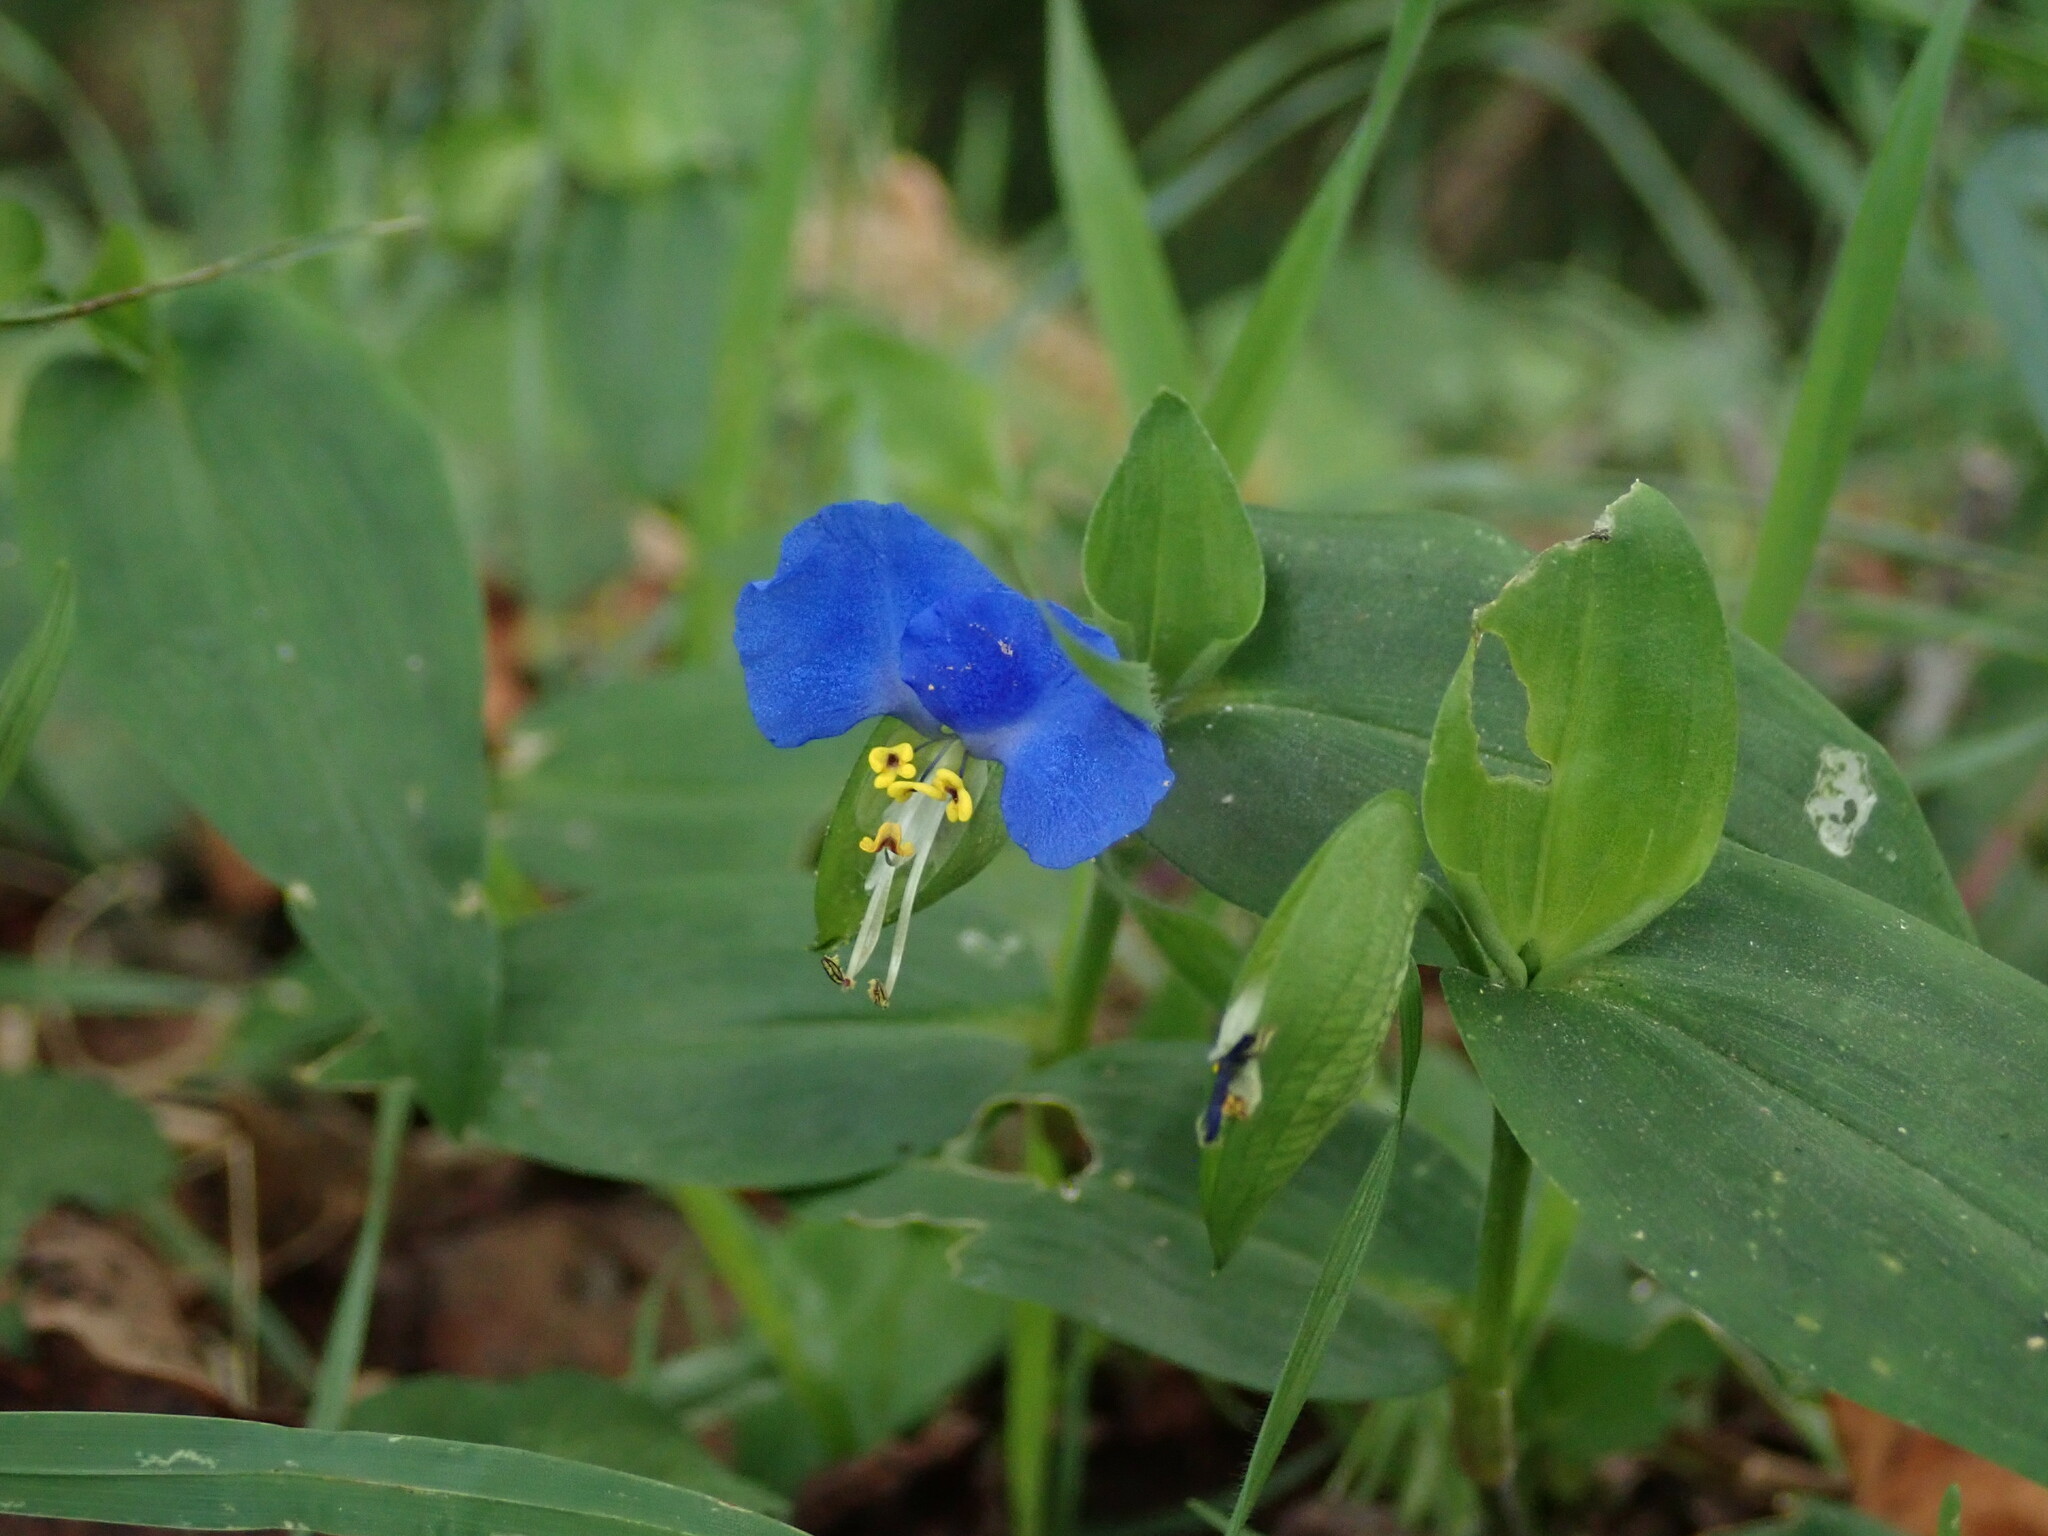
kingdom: Plantae
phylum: Tracheophyta
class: Liliopsida
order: Commelinales
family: Commelinaceae
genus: Commelina
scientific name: Commelina communis
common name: Asiatic dayflower
